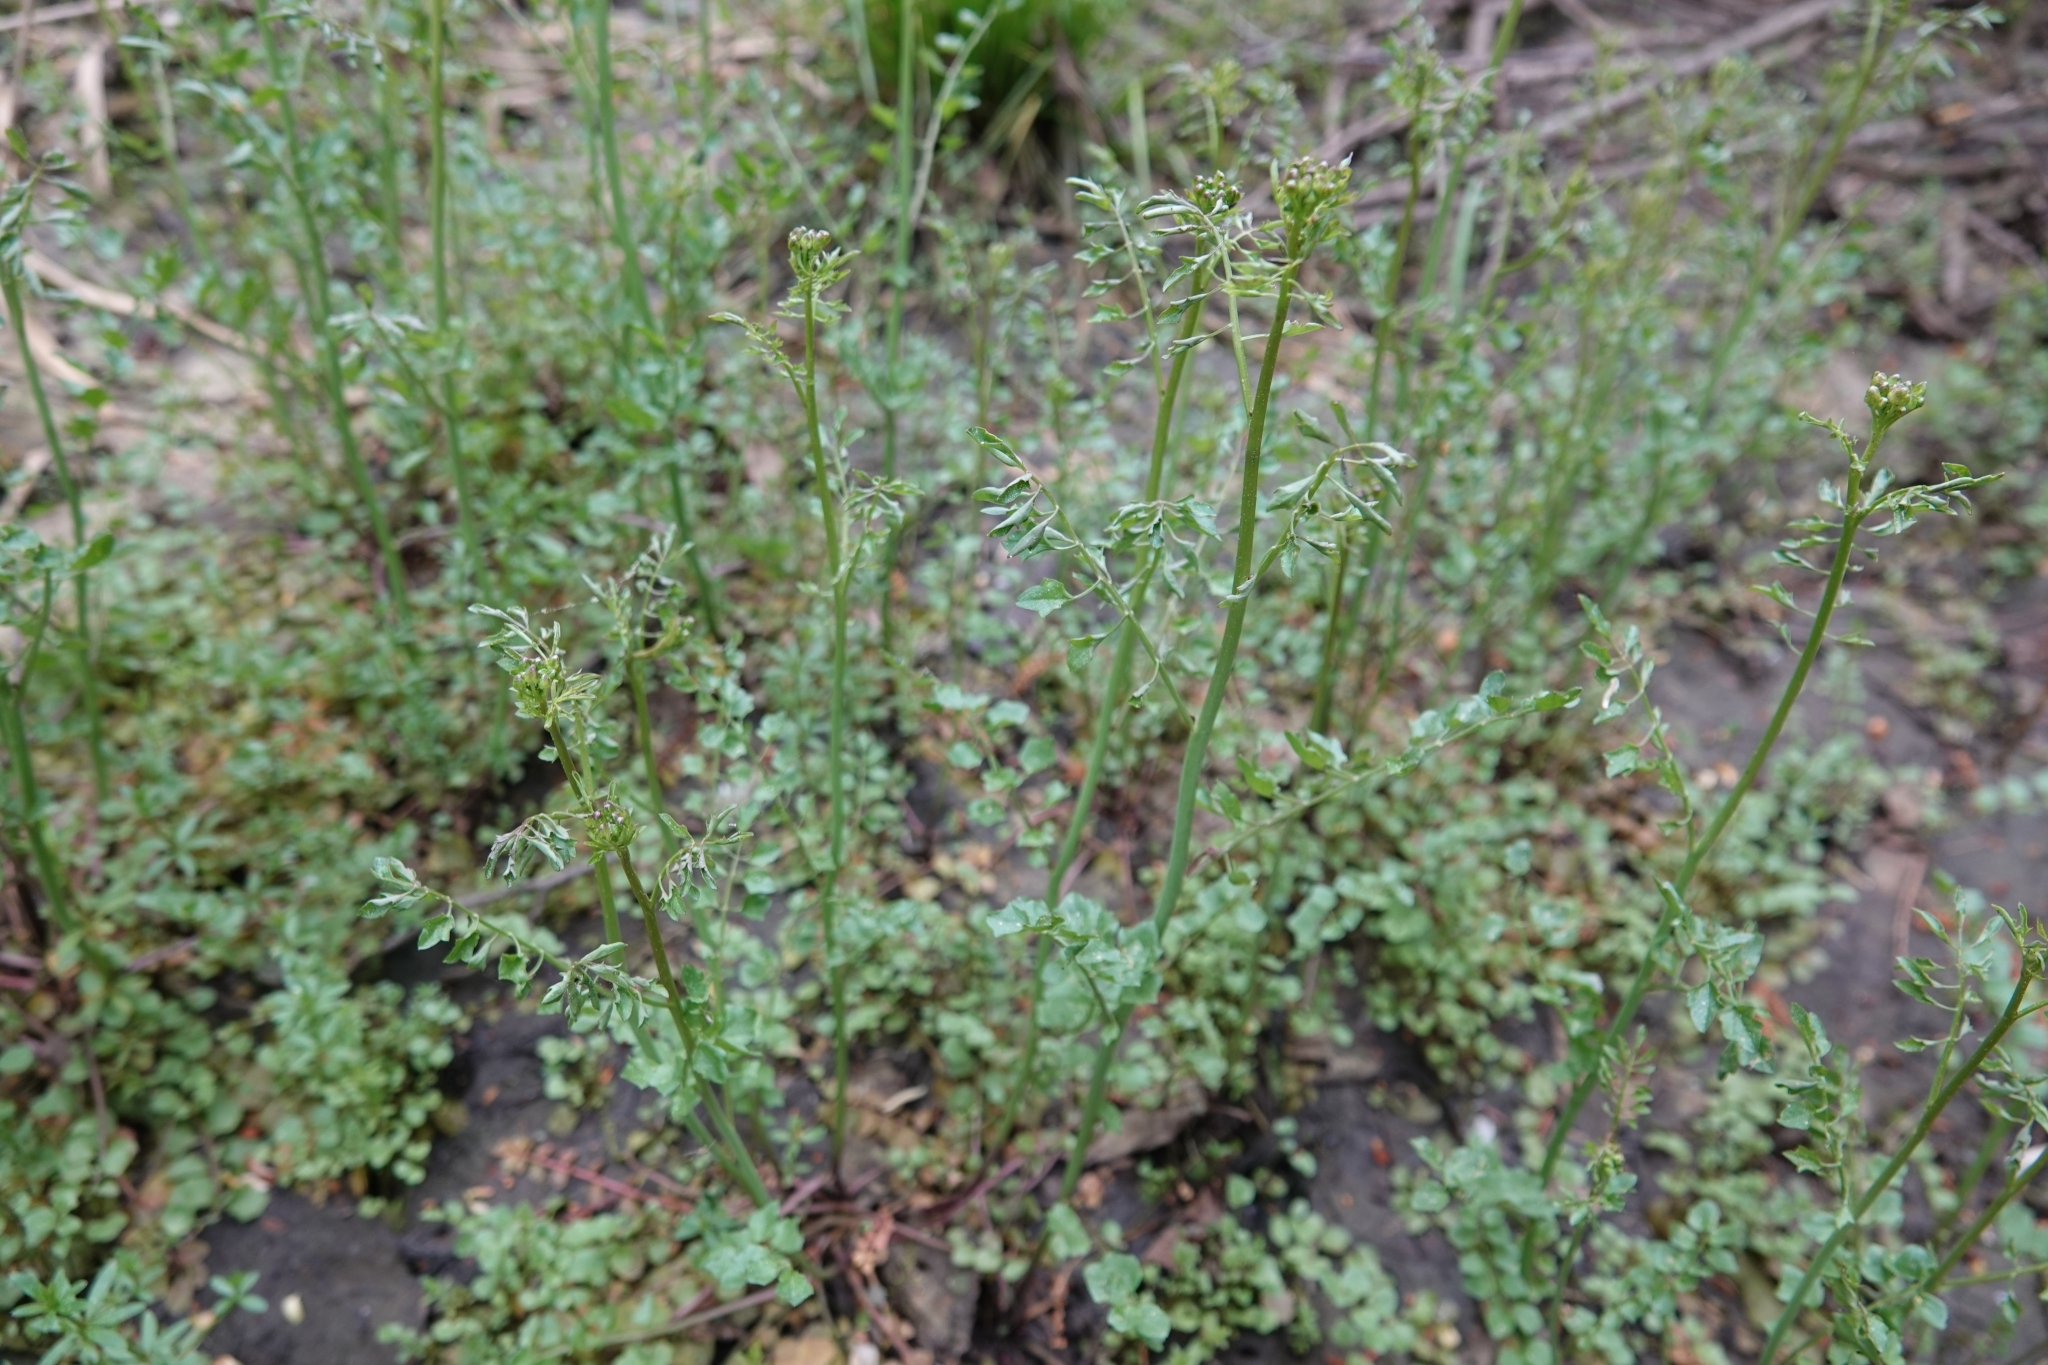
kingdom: Plantae
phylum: Tracheophyta
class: Magnoliopsida
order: Brassicales
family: Brassicaceae
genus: Cardamine
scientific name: Cardamine dentata
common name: Toothed bittercress
